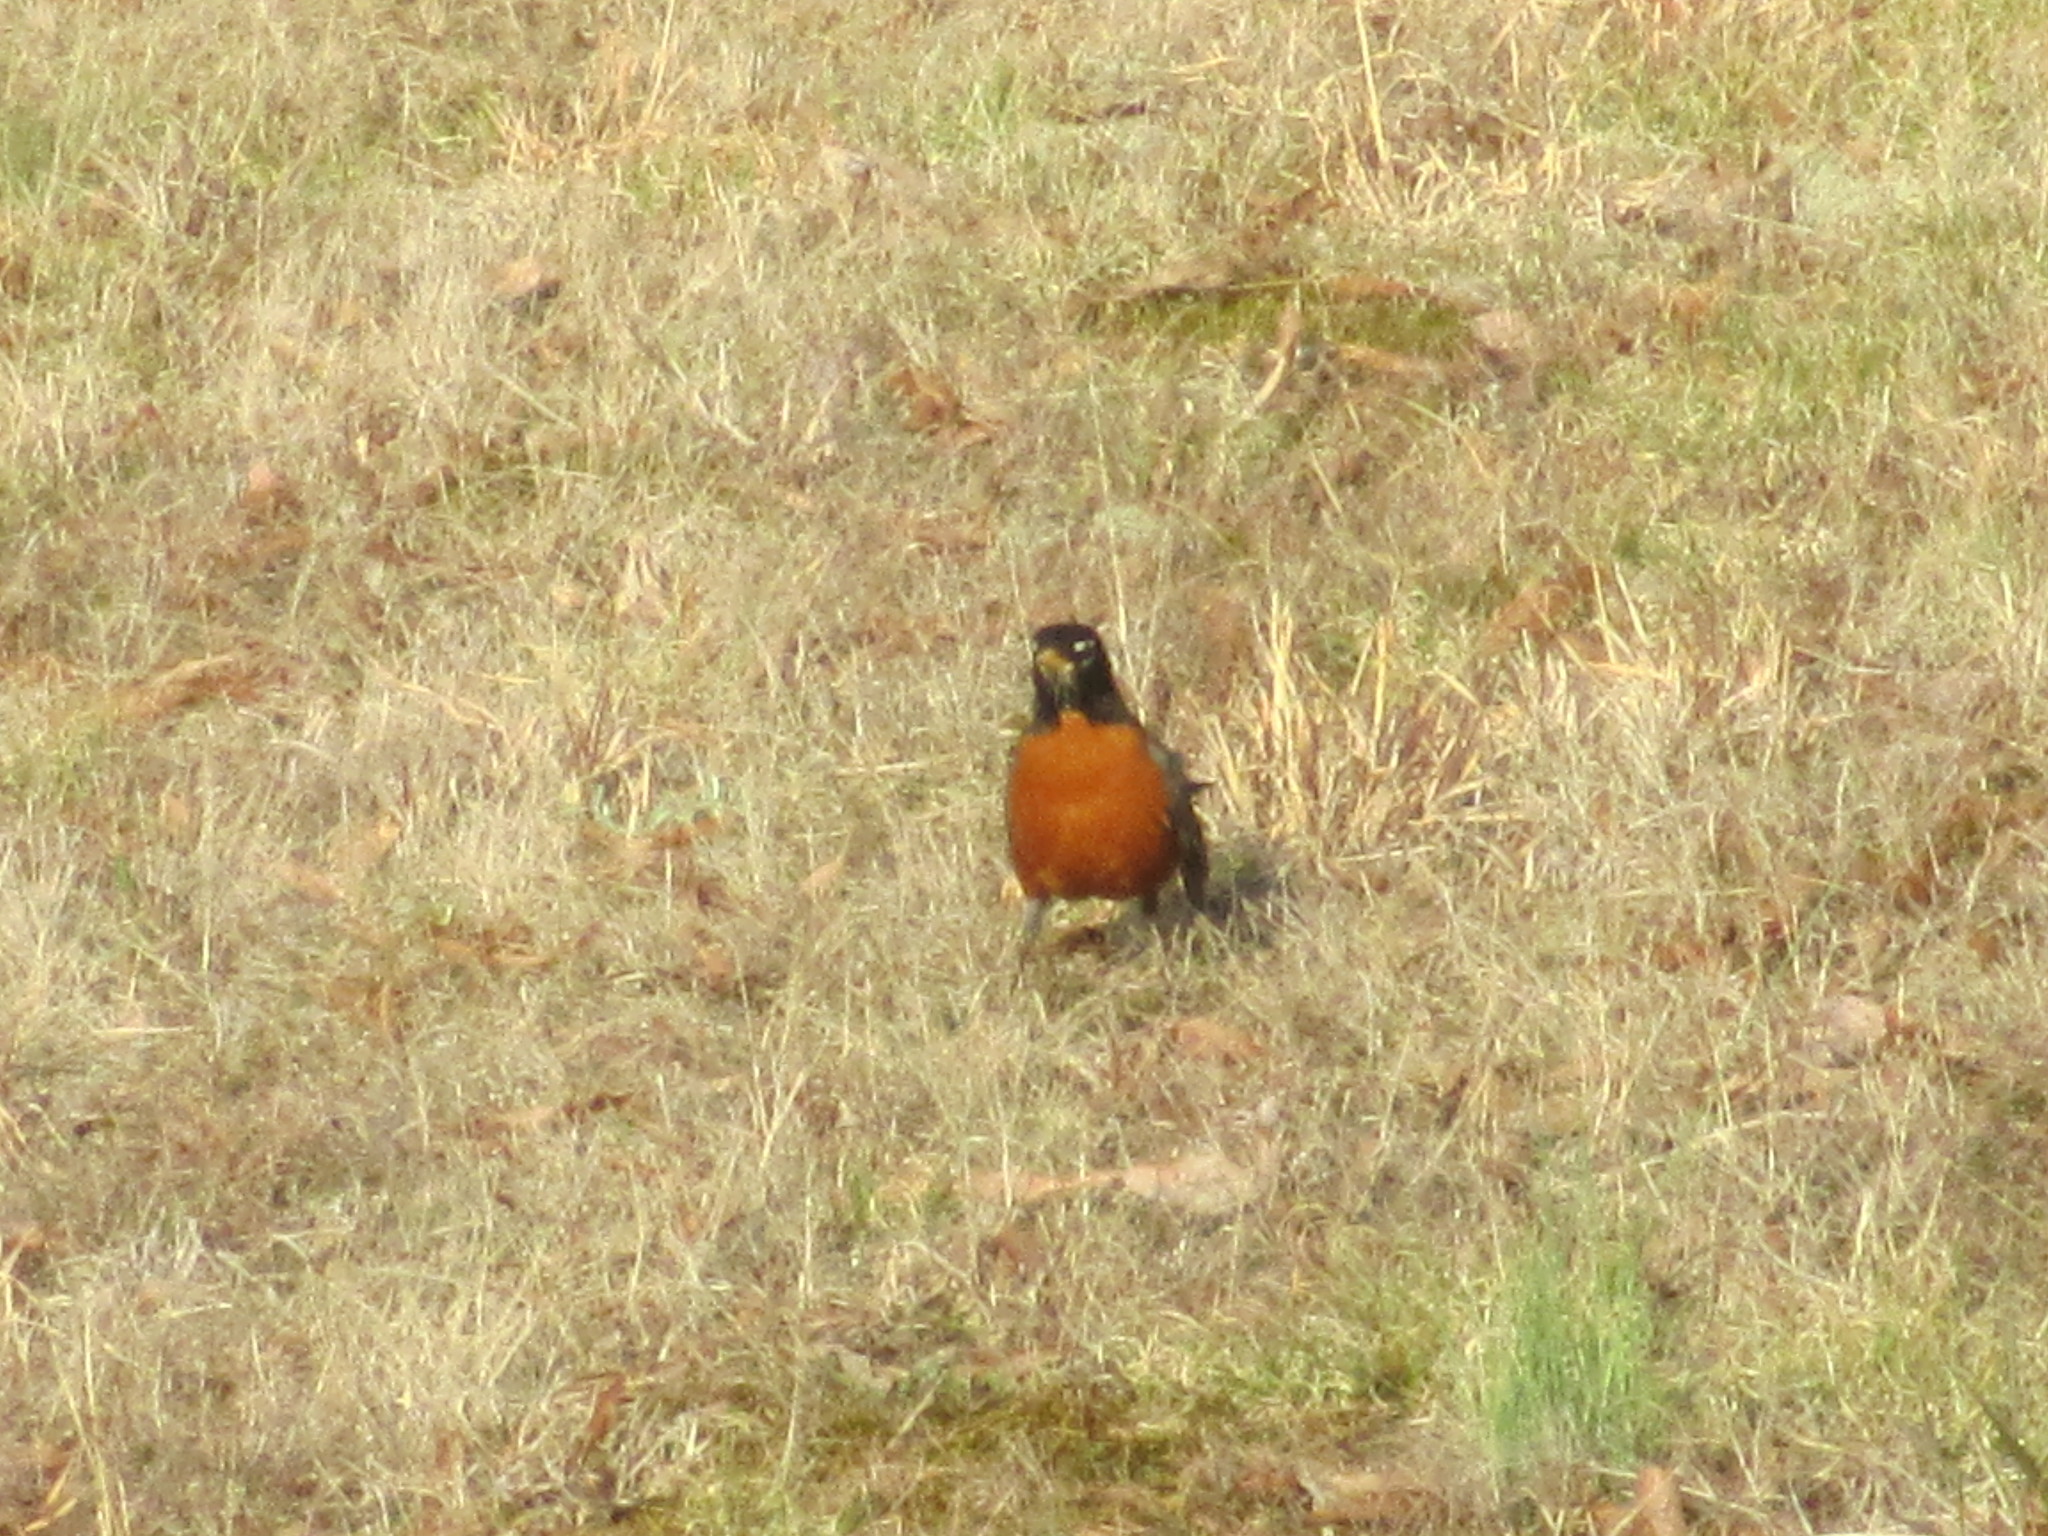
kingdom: Animalia
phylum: Chordata
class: Aves
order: Passeriformes
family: Turdidae
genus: Turdus
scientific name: Turdus migratorius
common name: American robin
